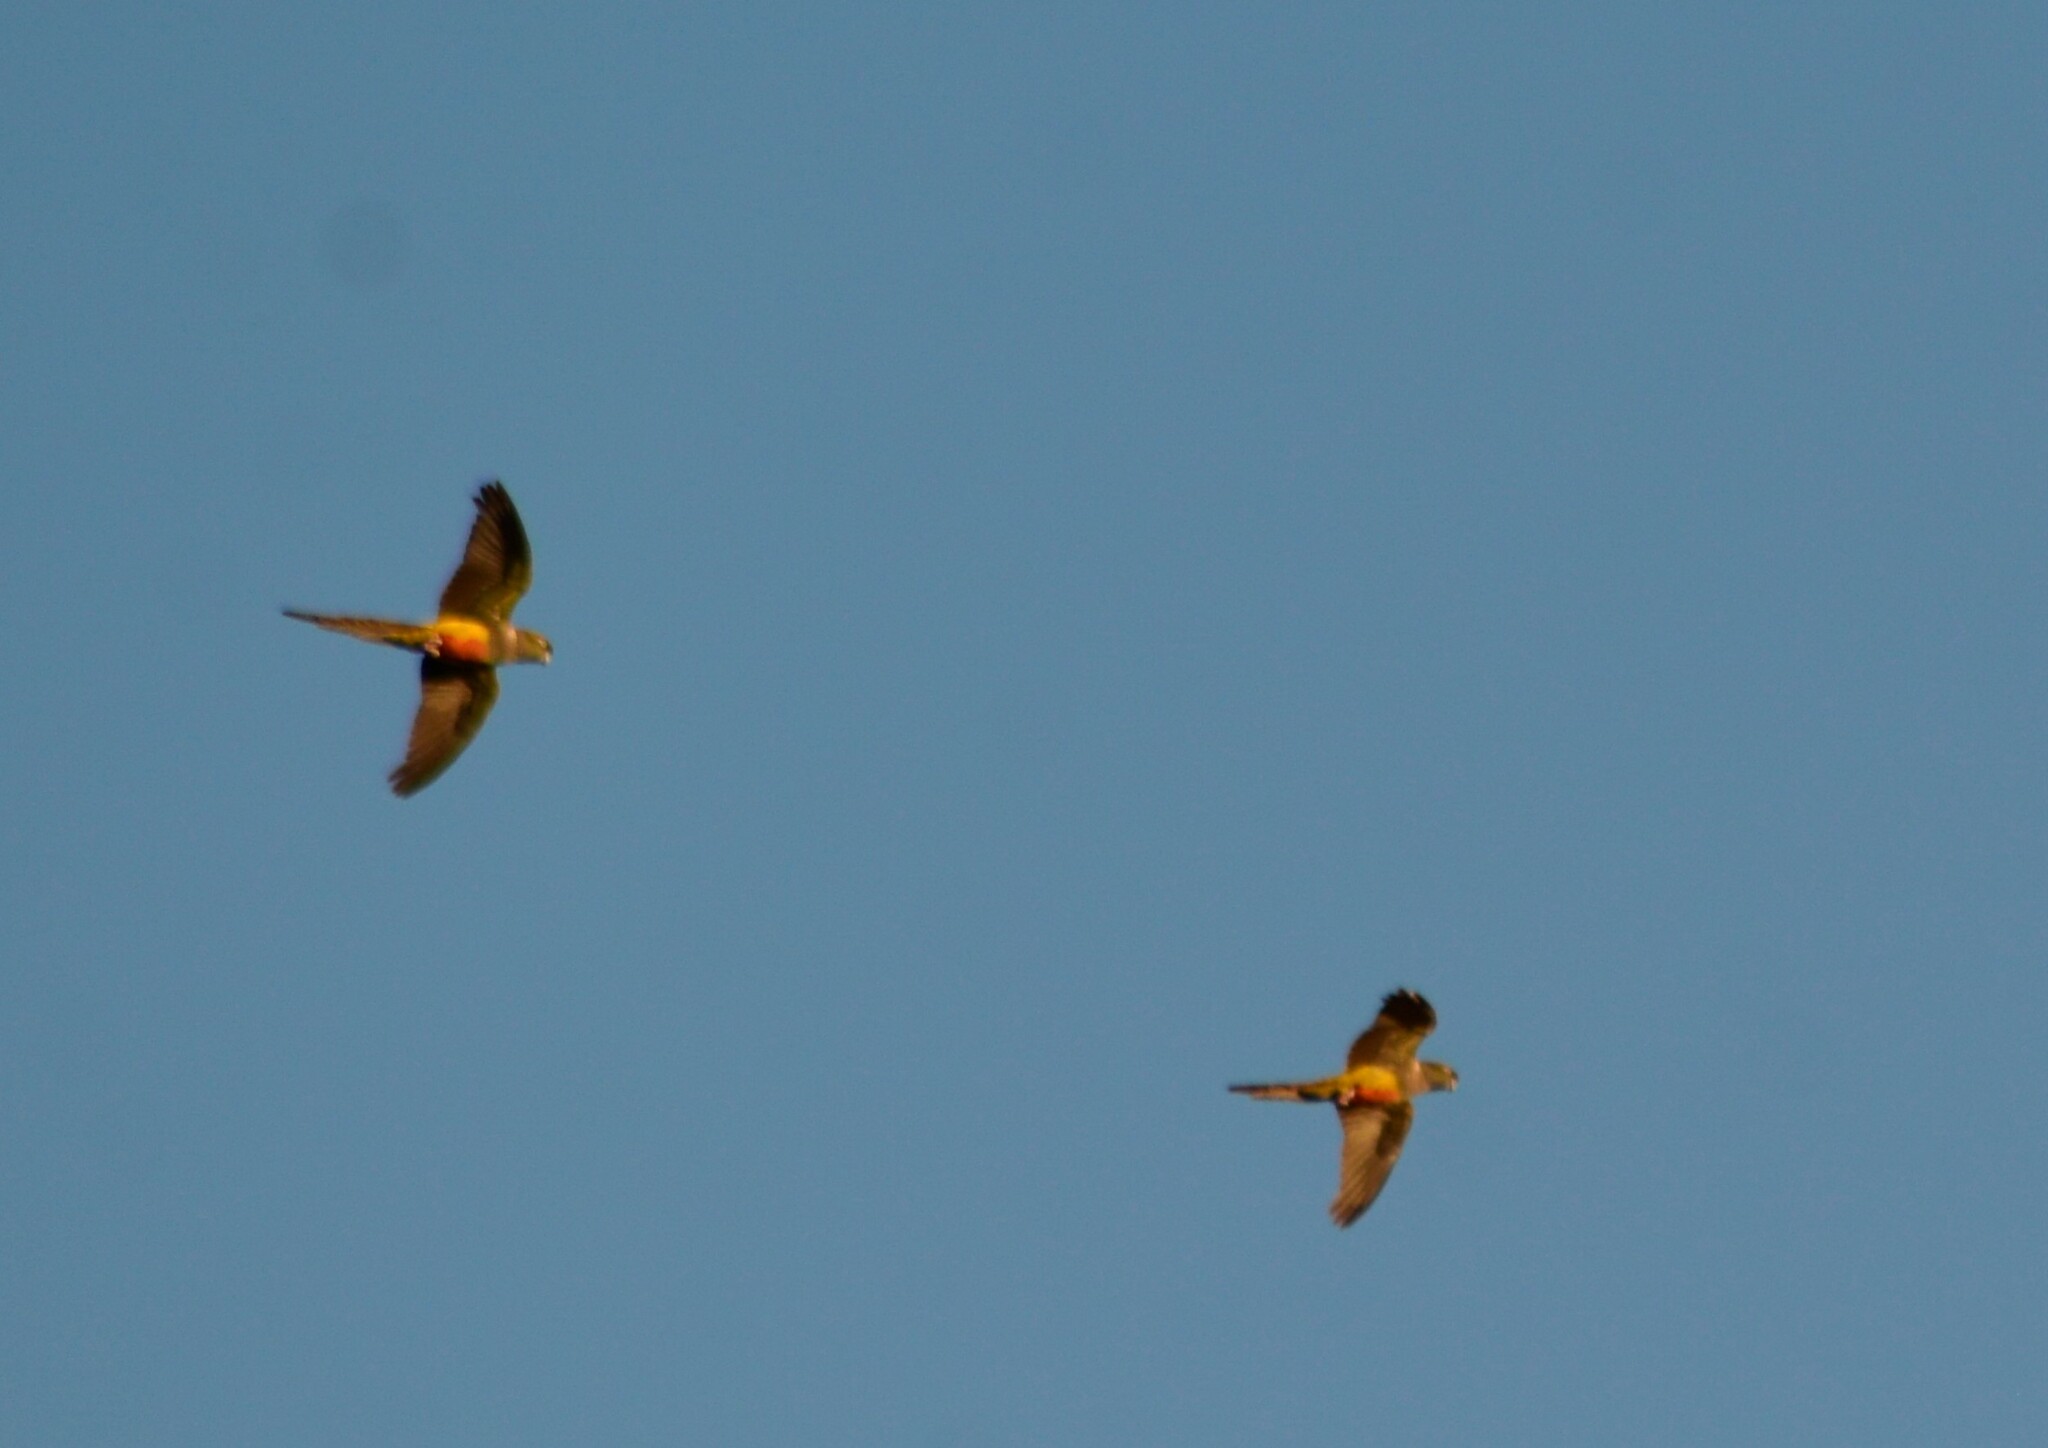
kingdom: Animalia
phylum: Chordata
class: Aves
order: Psittaciformes
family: Psittacidae
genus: Cyanoliseus
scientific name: Cyanoliseus patagonus
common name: Burrowing parrot
